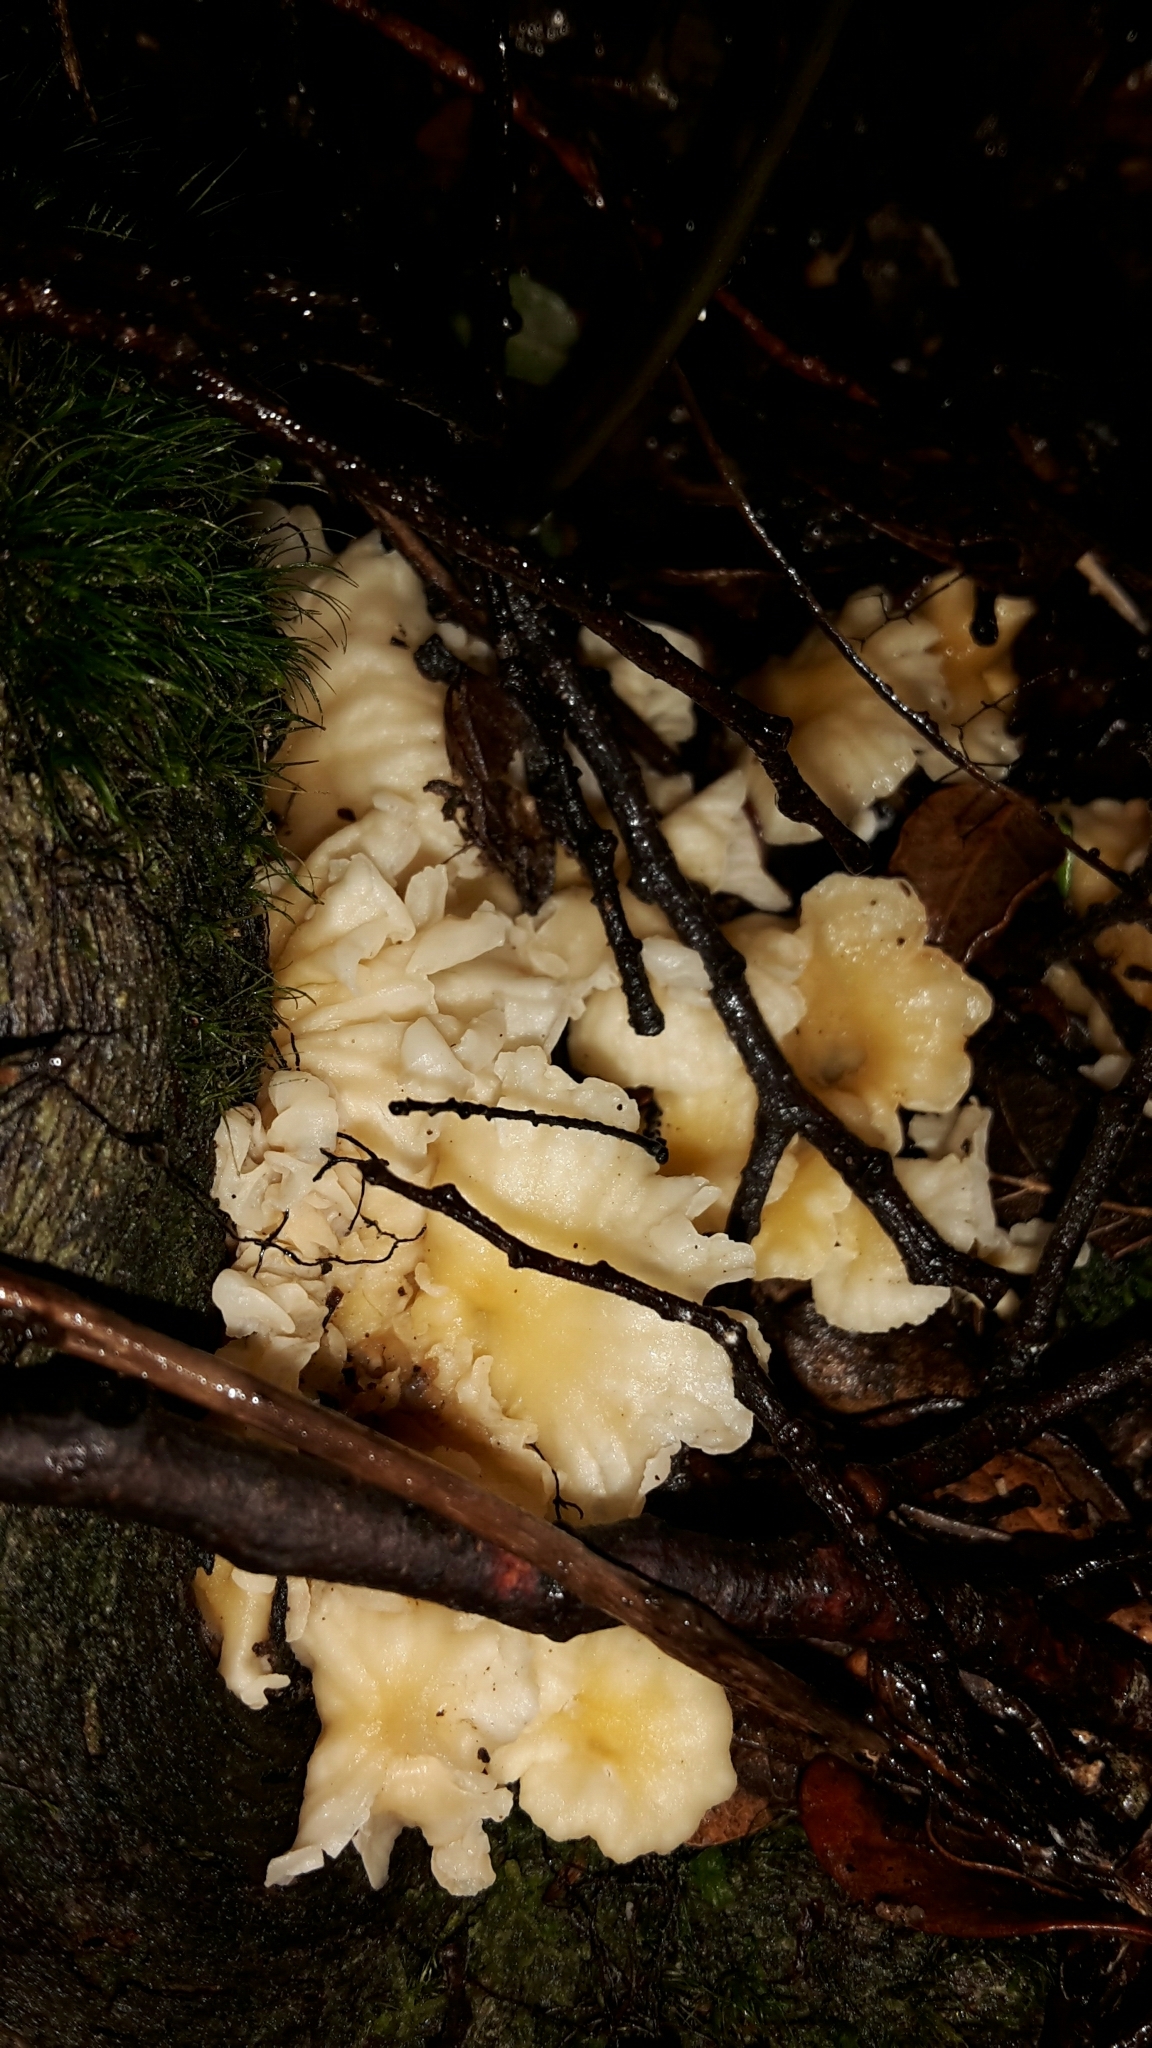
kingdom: Fungi
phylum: Basidiomycota
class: Agaricomycetes
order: Cantharellales
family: Hydnaceae
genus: Cantharellus
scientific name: Cantharellus wellingtonensis
